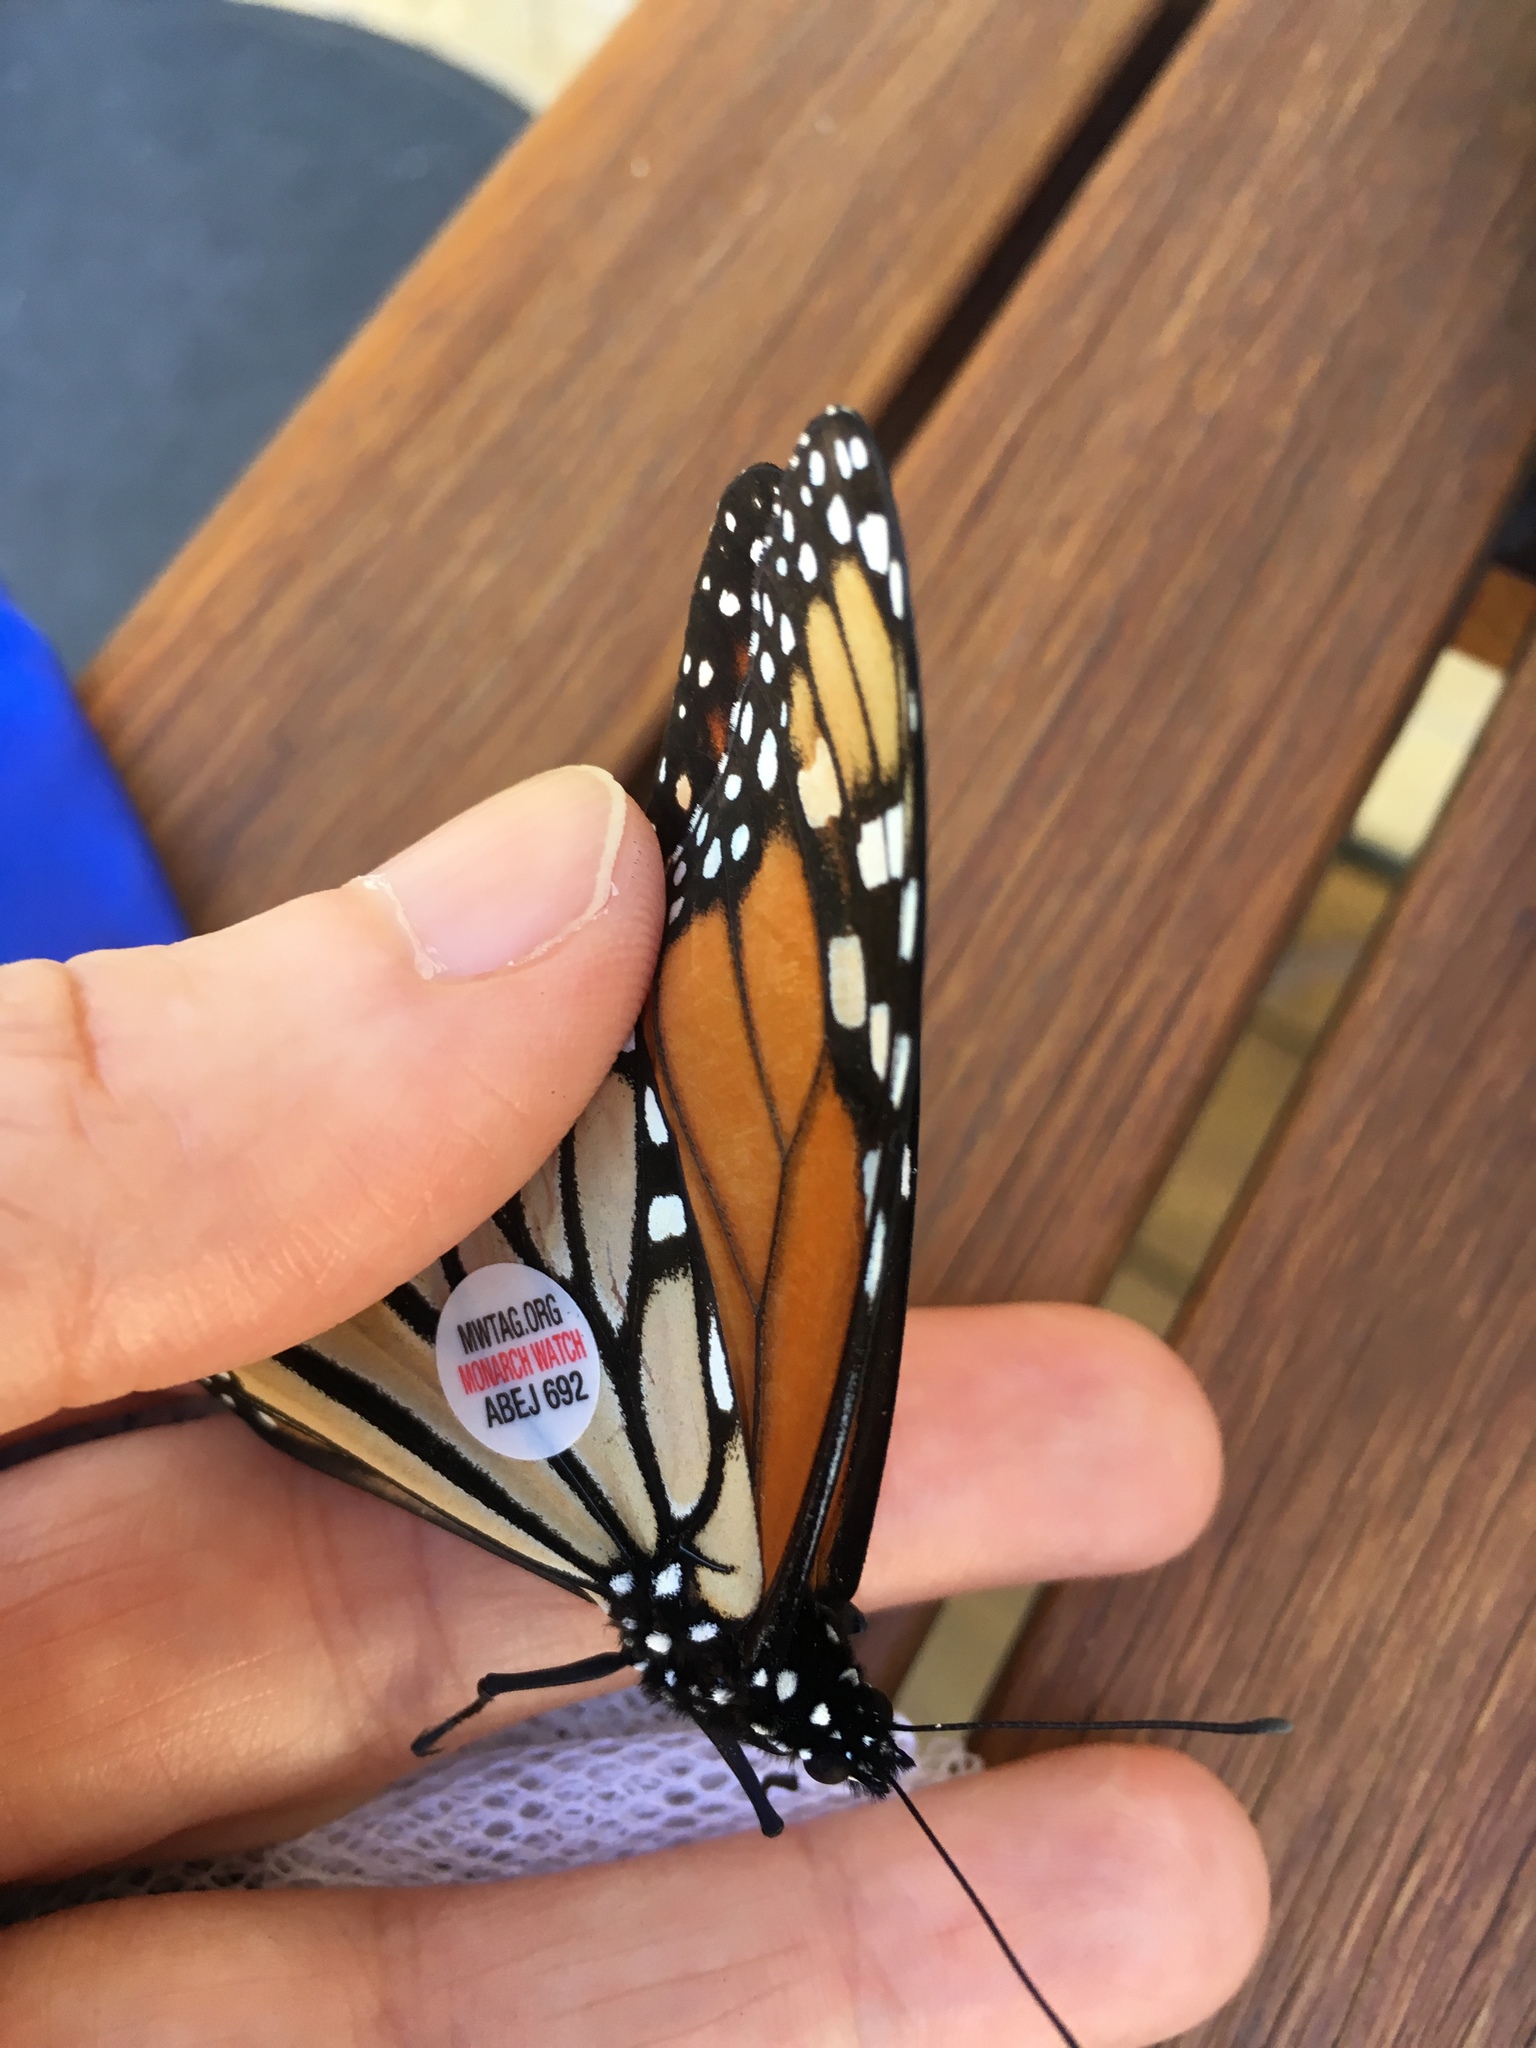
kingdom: Animalia
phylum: Arthropoda
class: Insecta
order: Lepidoptera
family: Nymphalidae
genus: Danaus
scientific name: Danaus plexippus
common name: Monarch
